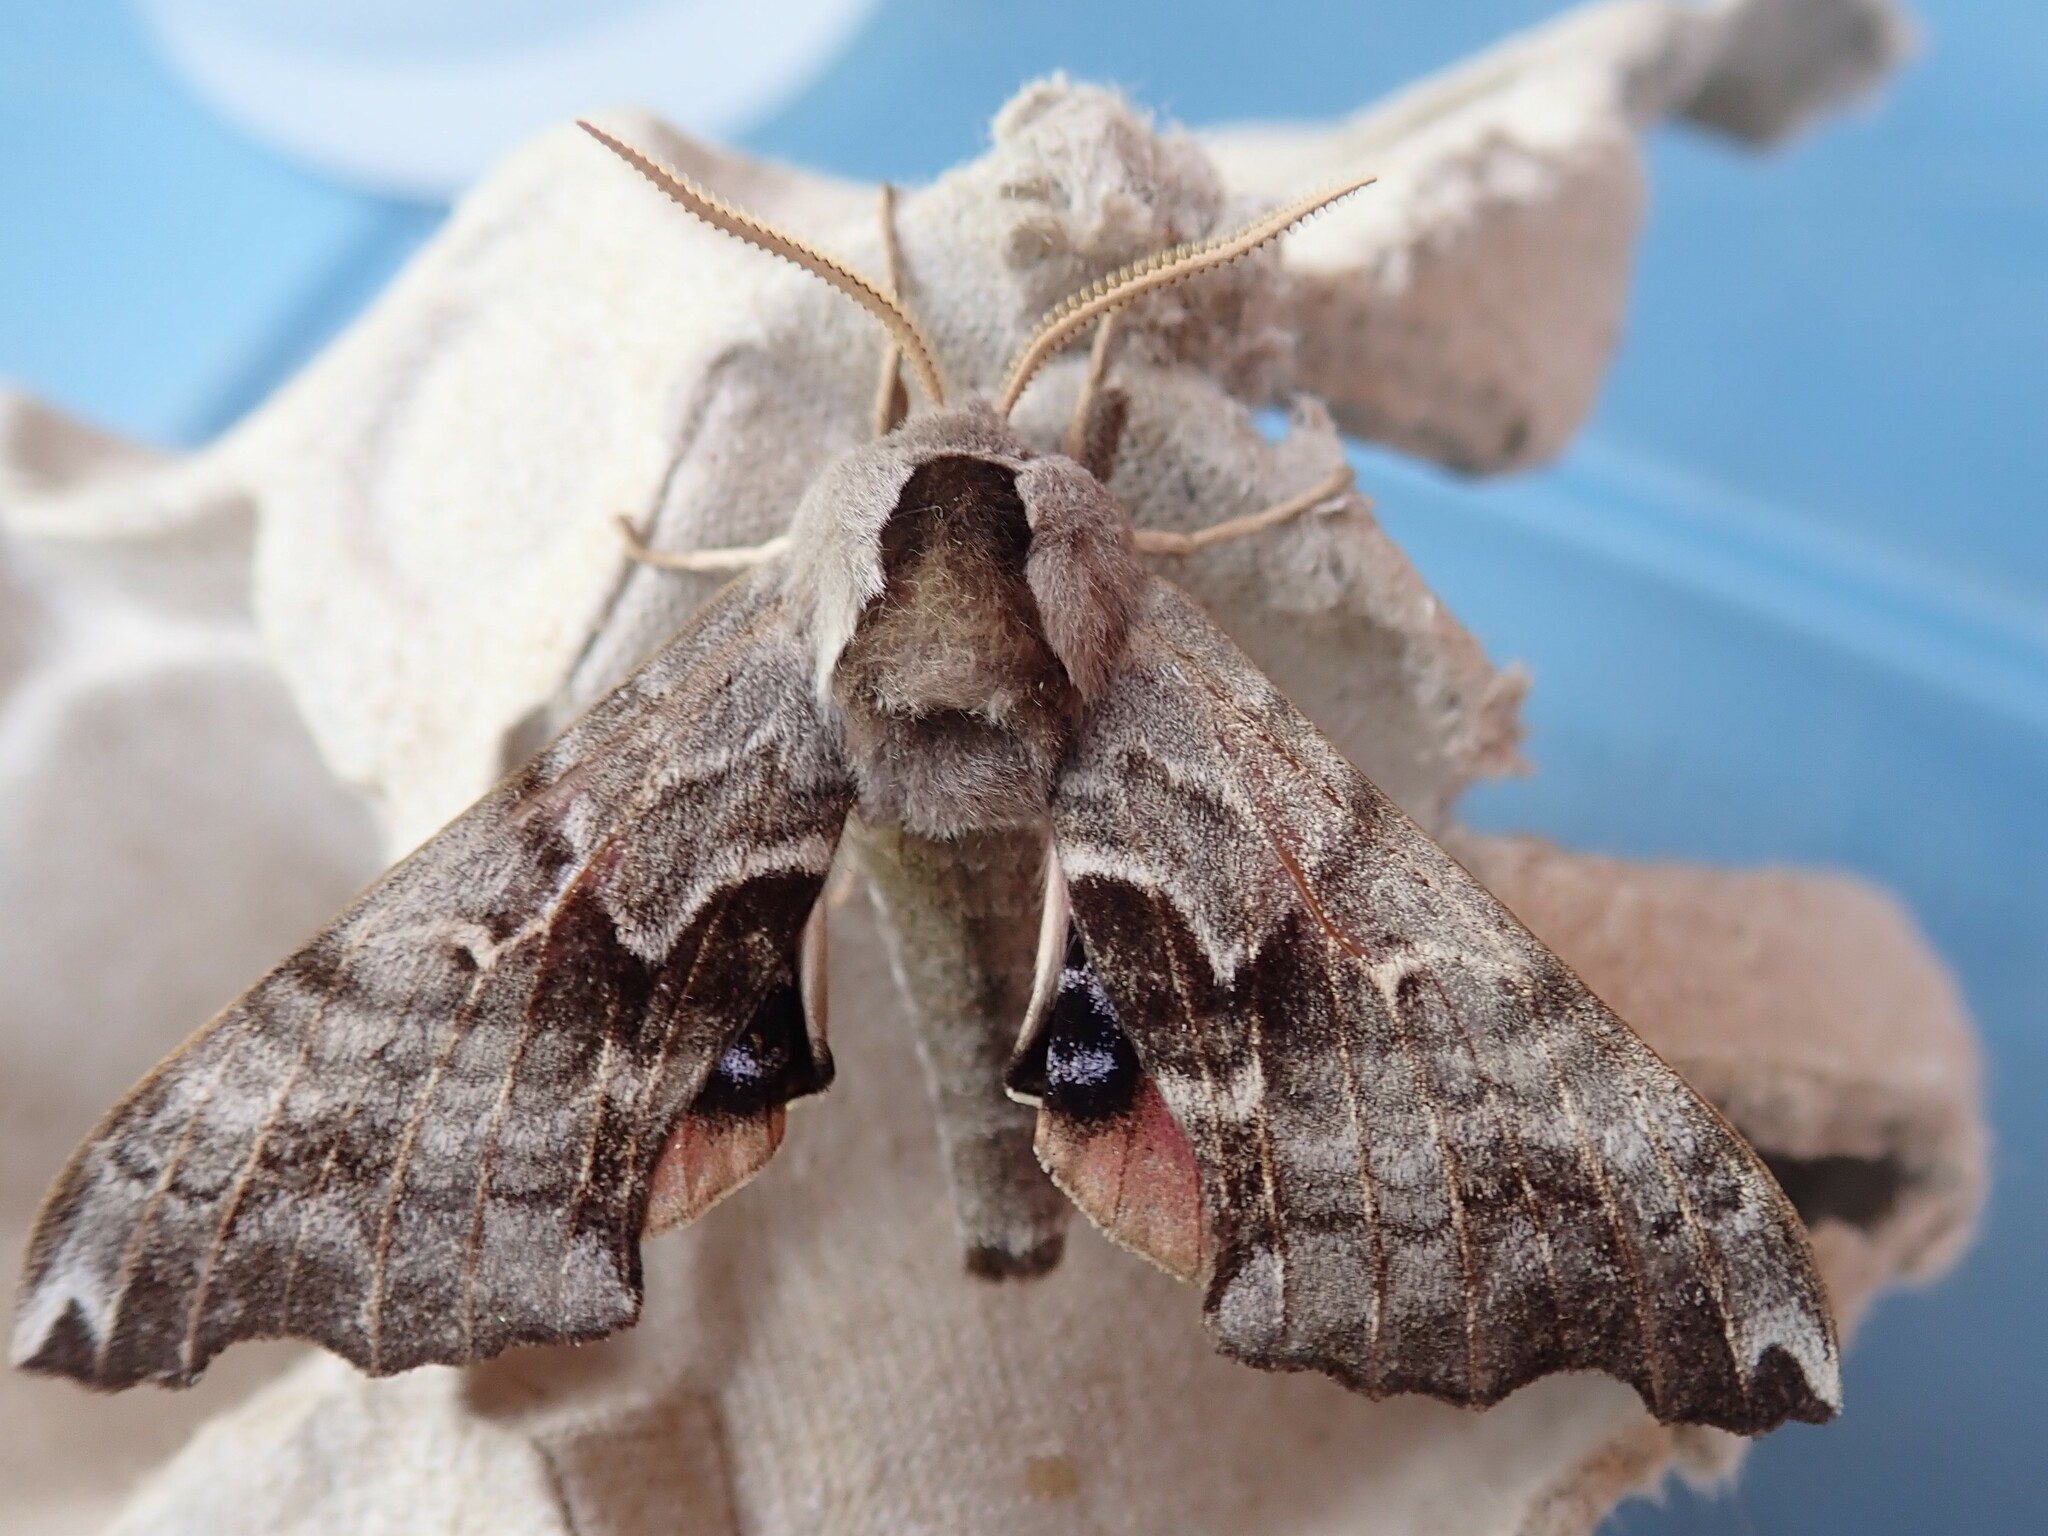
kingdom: Animalia
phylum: Arthropoda
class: Insecta
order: Lepidoptera
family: Sphingidae
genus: Smerinthus
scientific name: Smerinthus cerisyi
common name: Cerisy's sphinx moth
